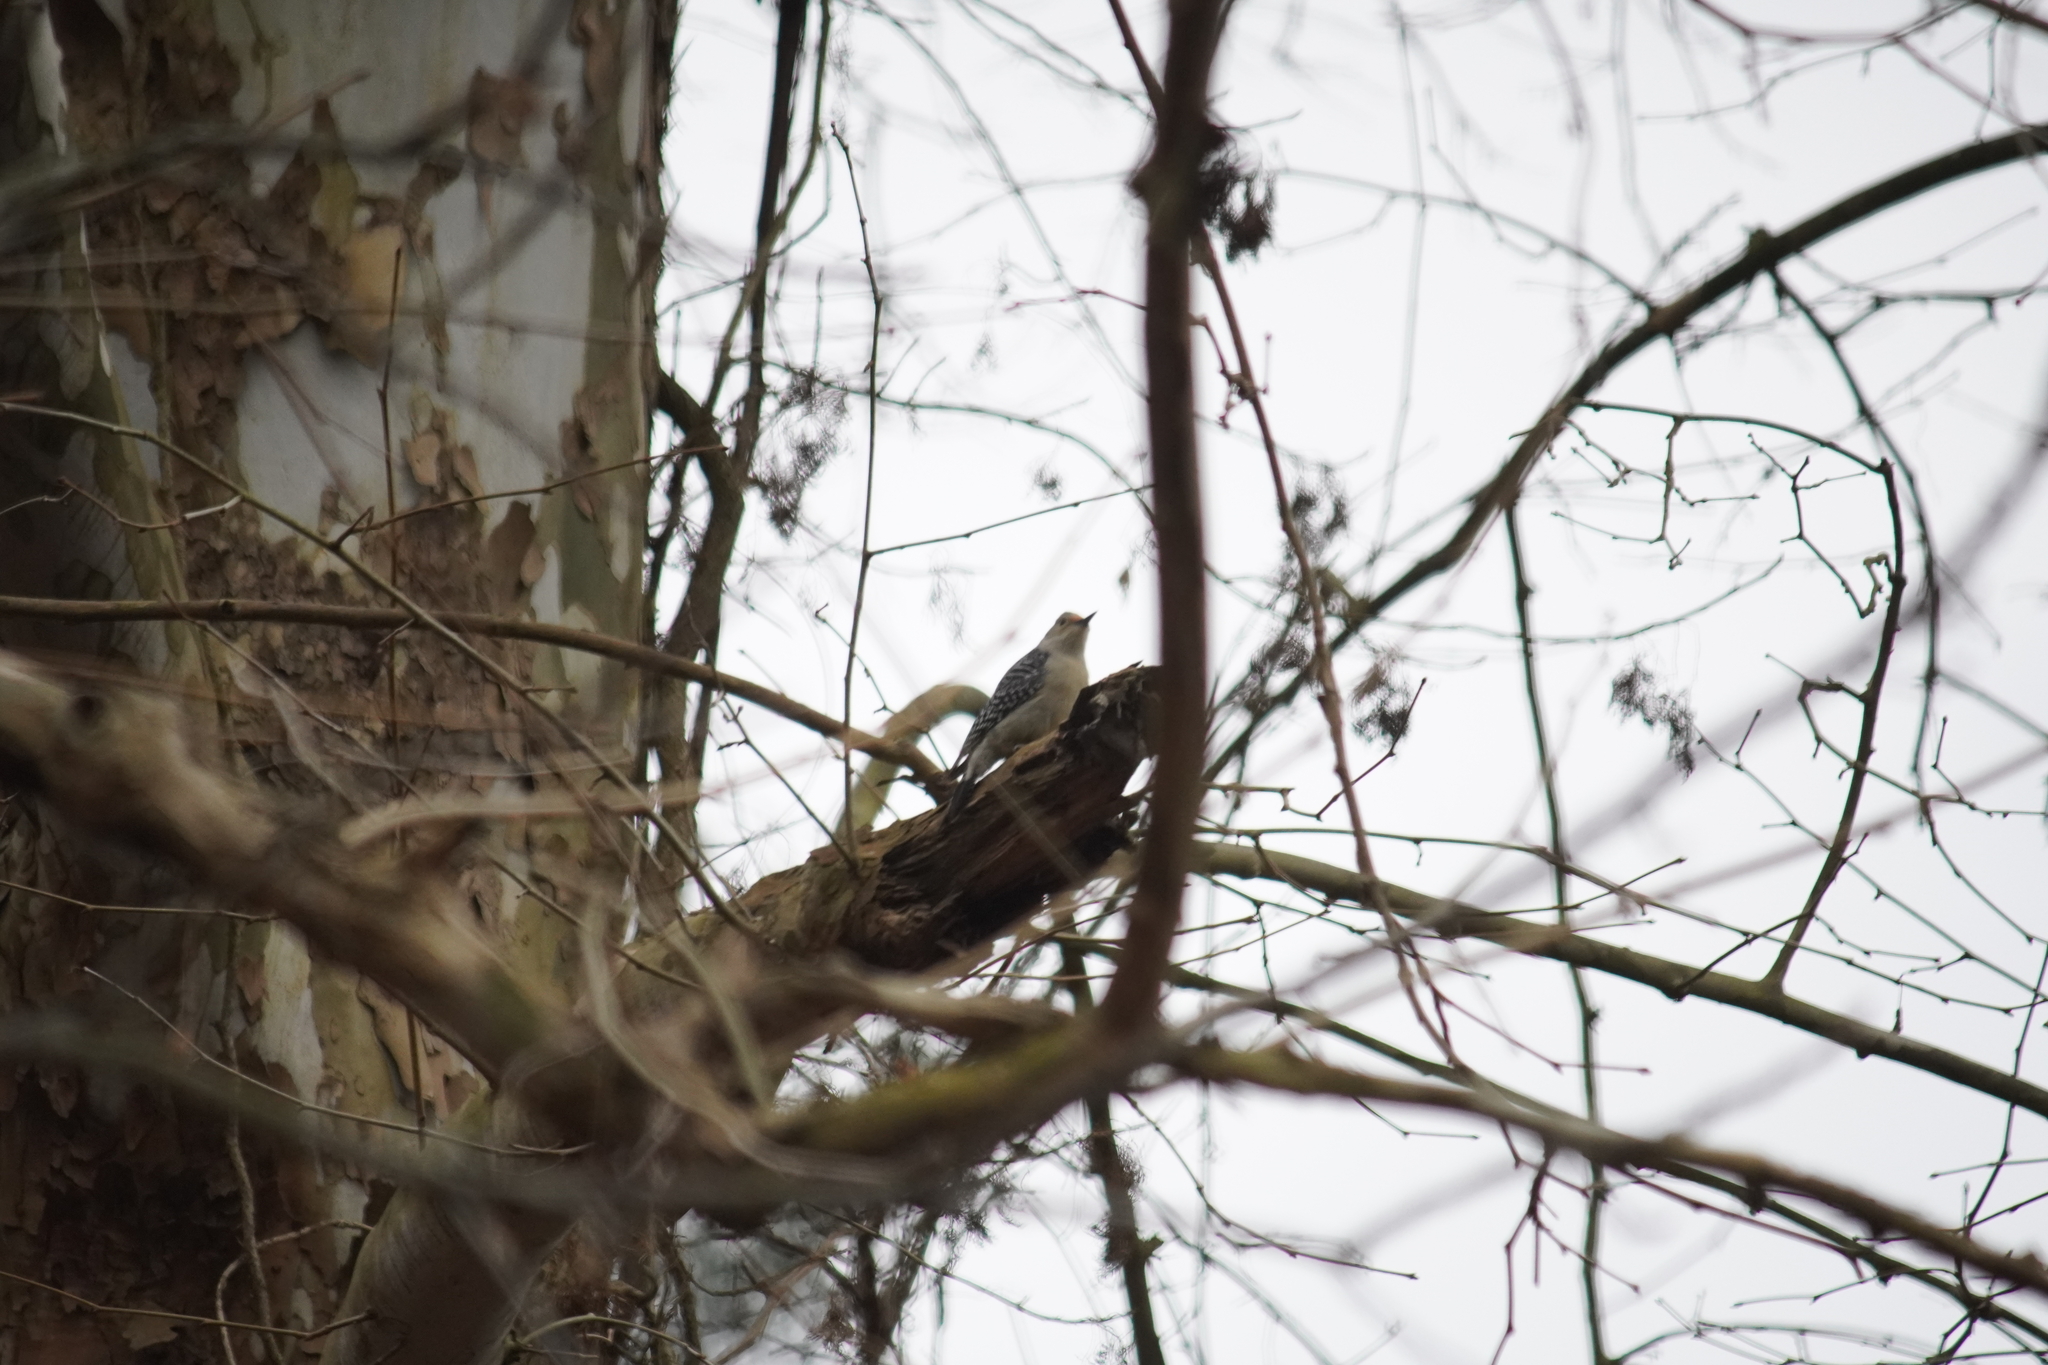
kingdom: Animalia
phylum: Chordata
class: Aves
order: Piciformes
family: Picidae
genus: Melanerpes
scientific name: Melanerpes carolinus
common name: Red-bellied woodpecker
